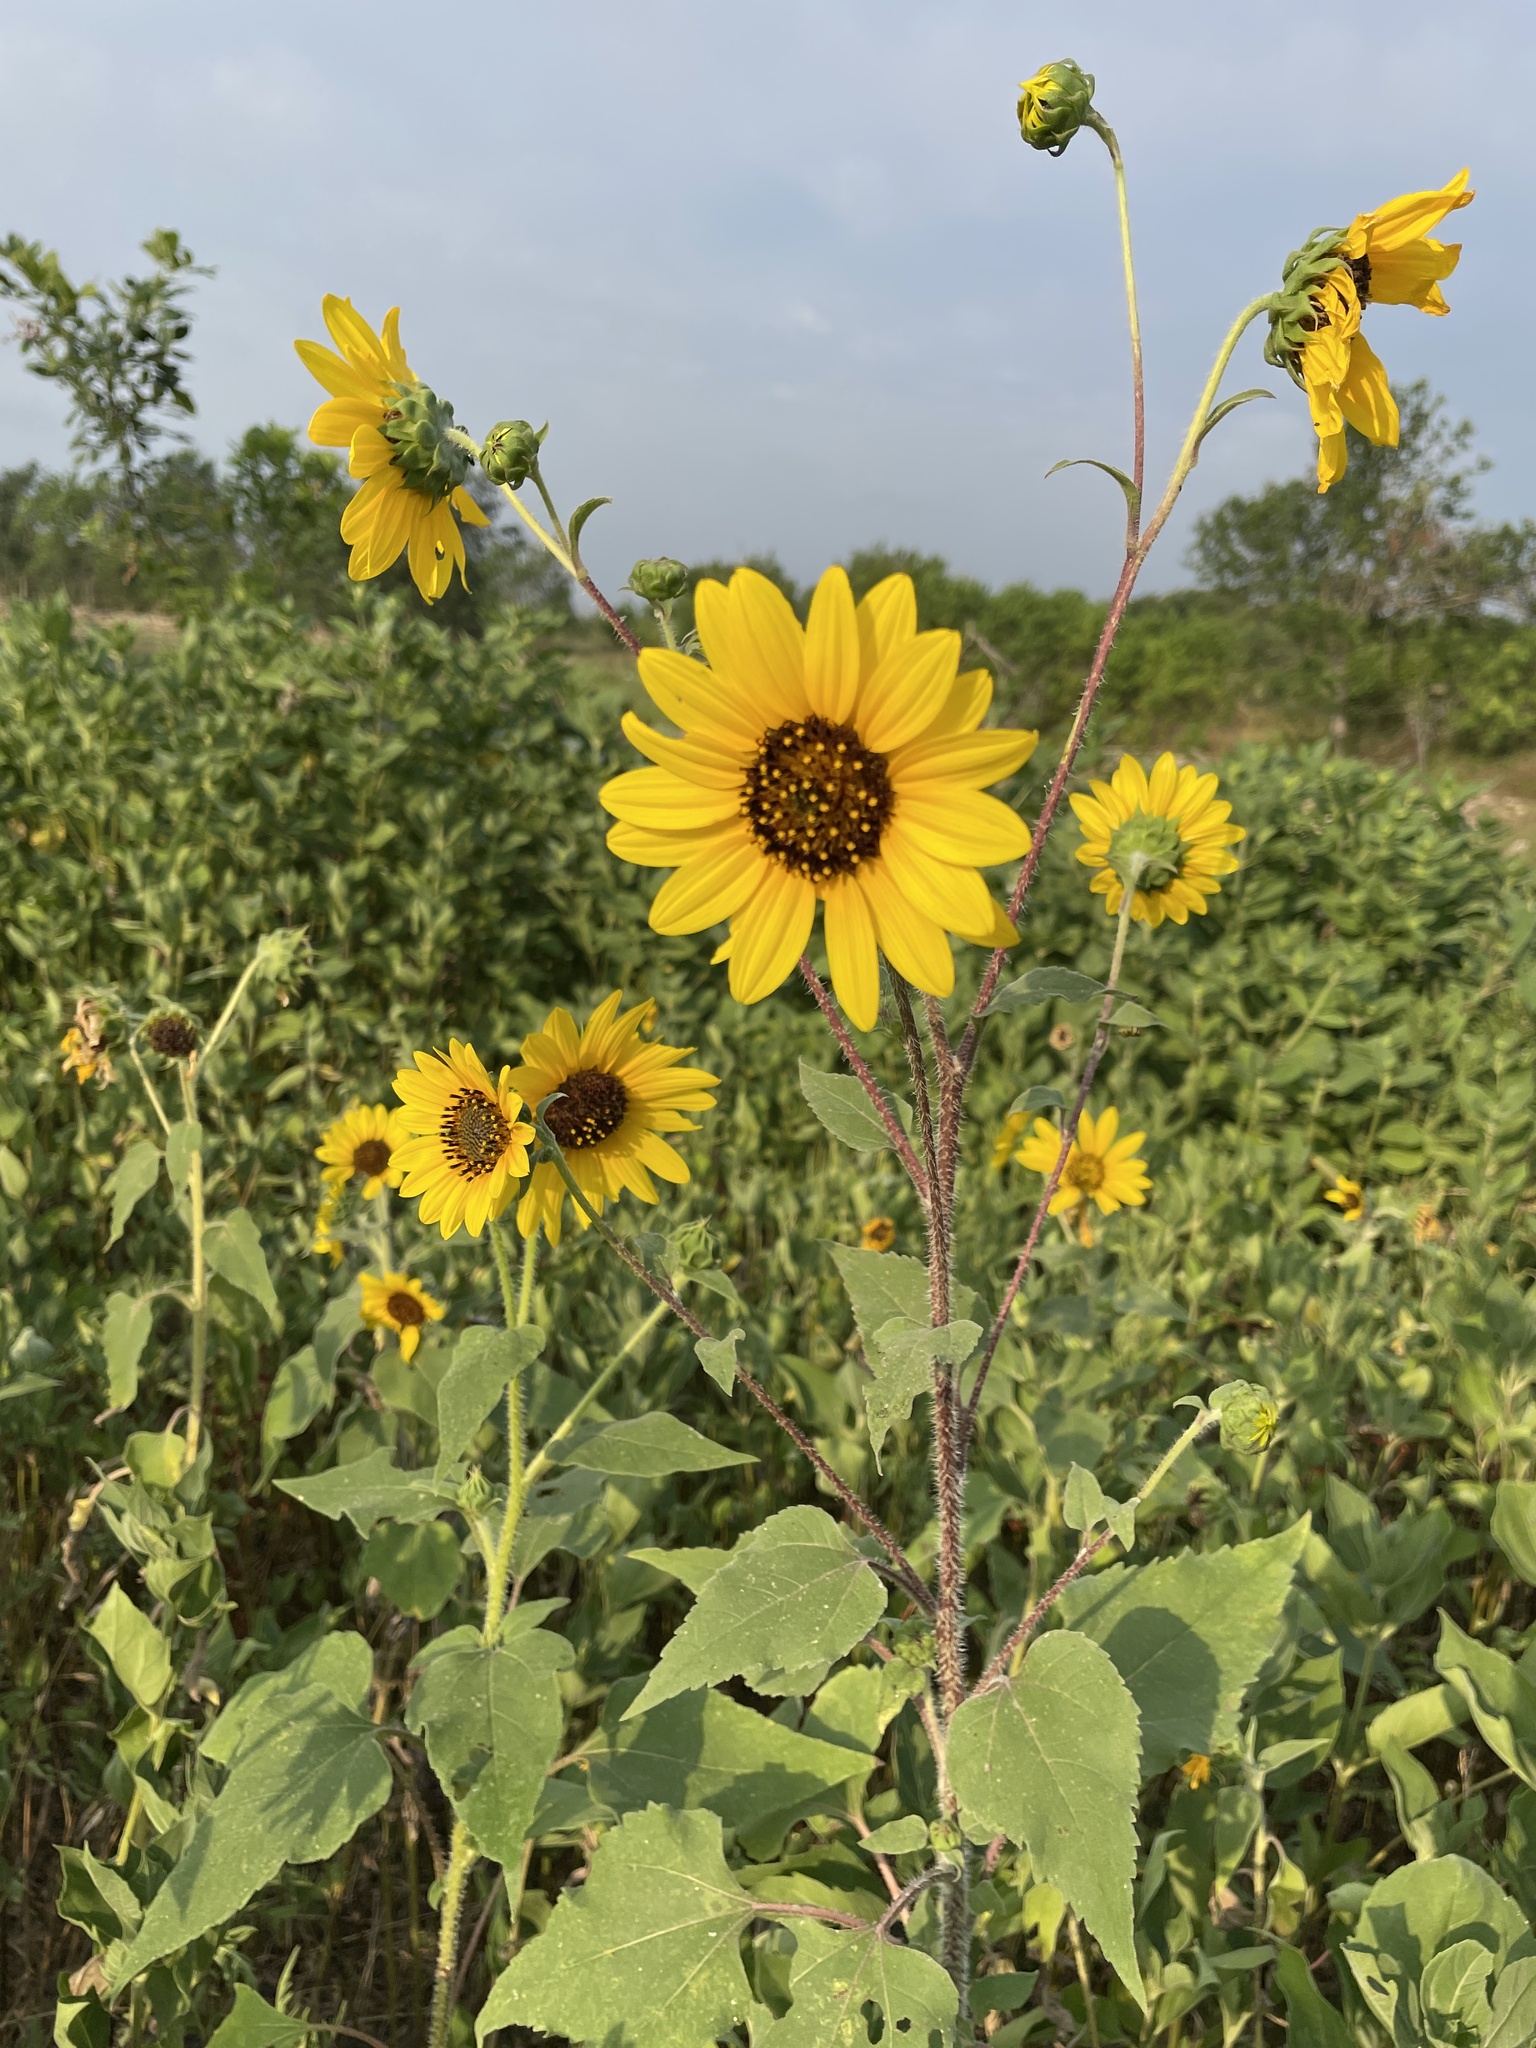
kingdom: Plantae
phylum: Tracheophyta
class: Magnoliopsida
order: Asterales
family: Asteraceae
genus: Helianthus
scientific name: Helianthus annuus
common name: Sunflower
